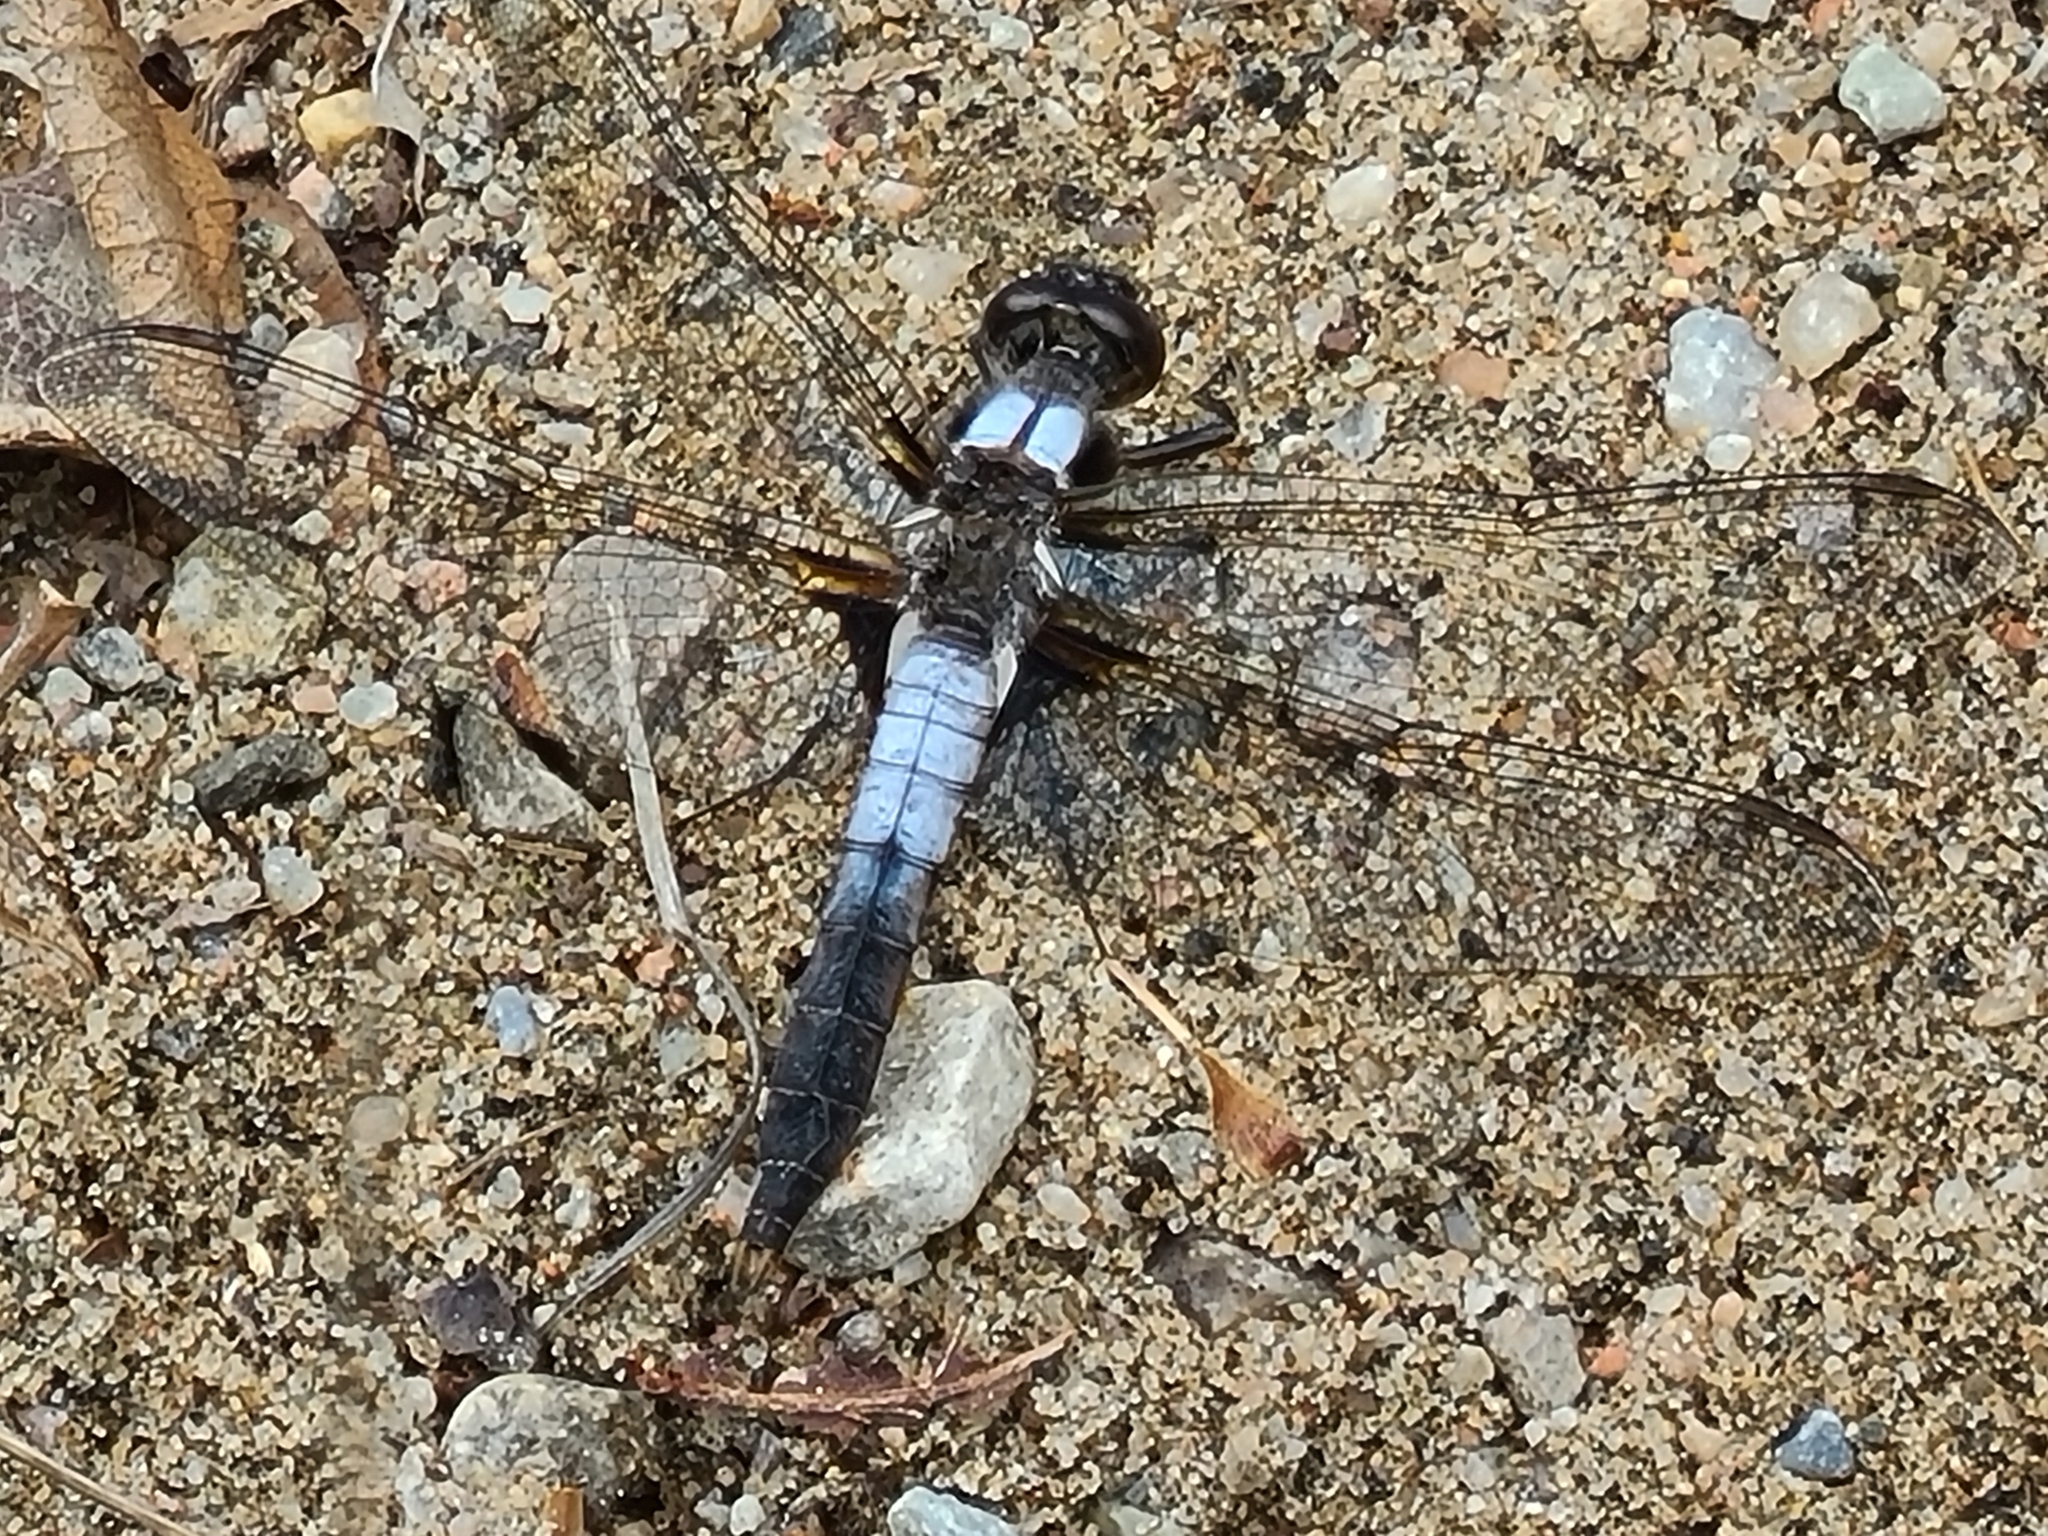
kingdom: Animalia
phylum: Arthropoda
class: Insecta
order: Odonata
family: Libellulidae
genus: Ladona
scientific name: Ladona julia
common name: Chalk-fronted corporal
